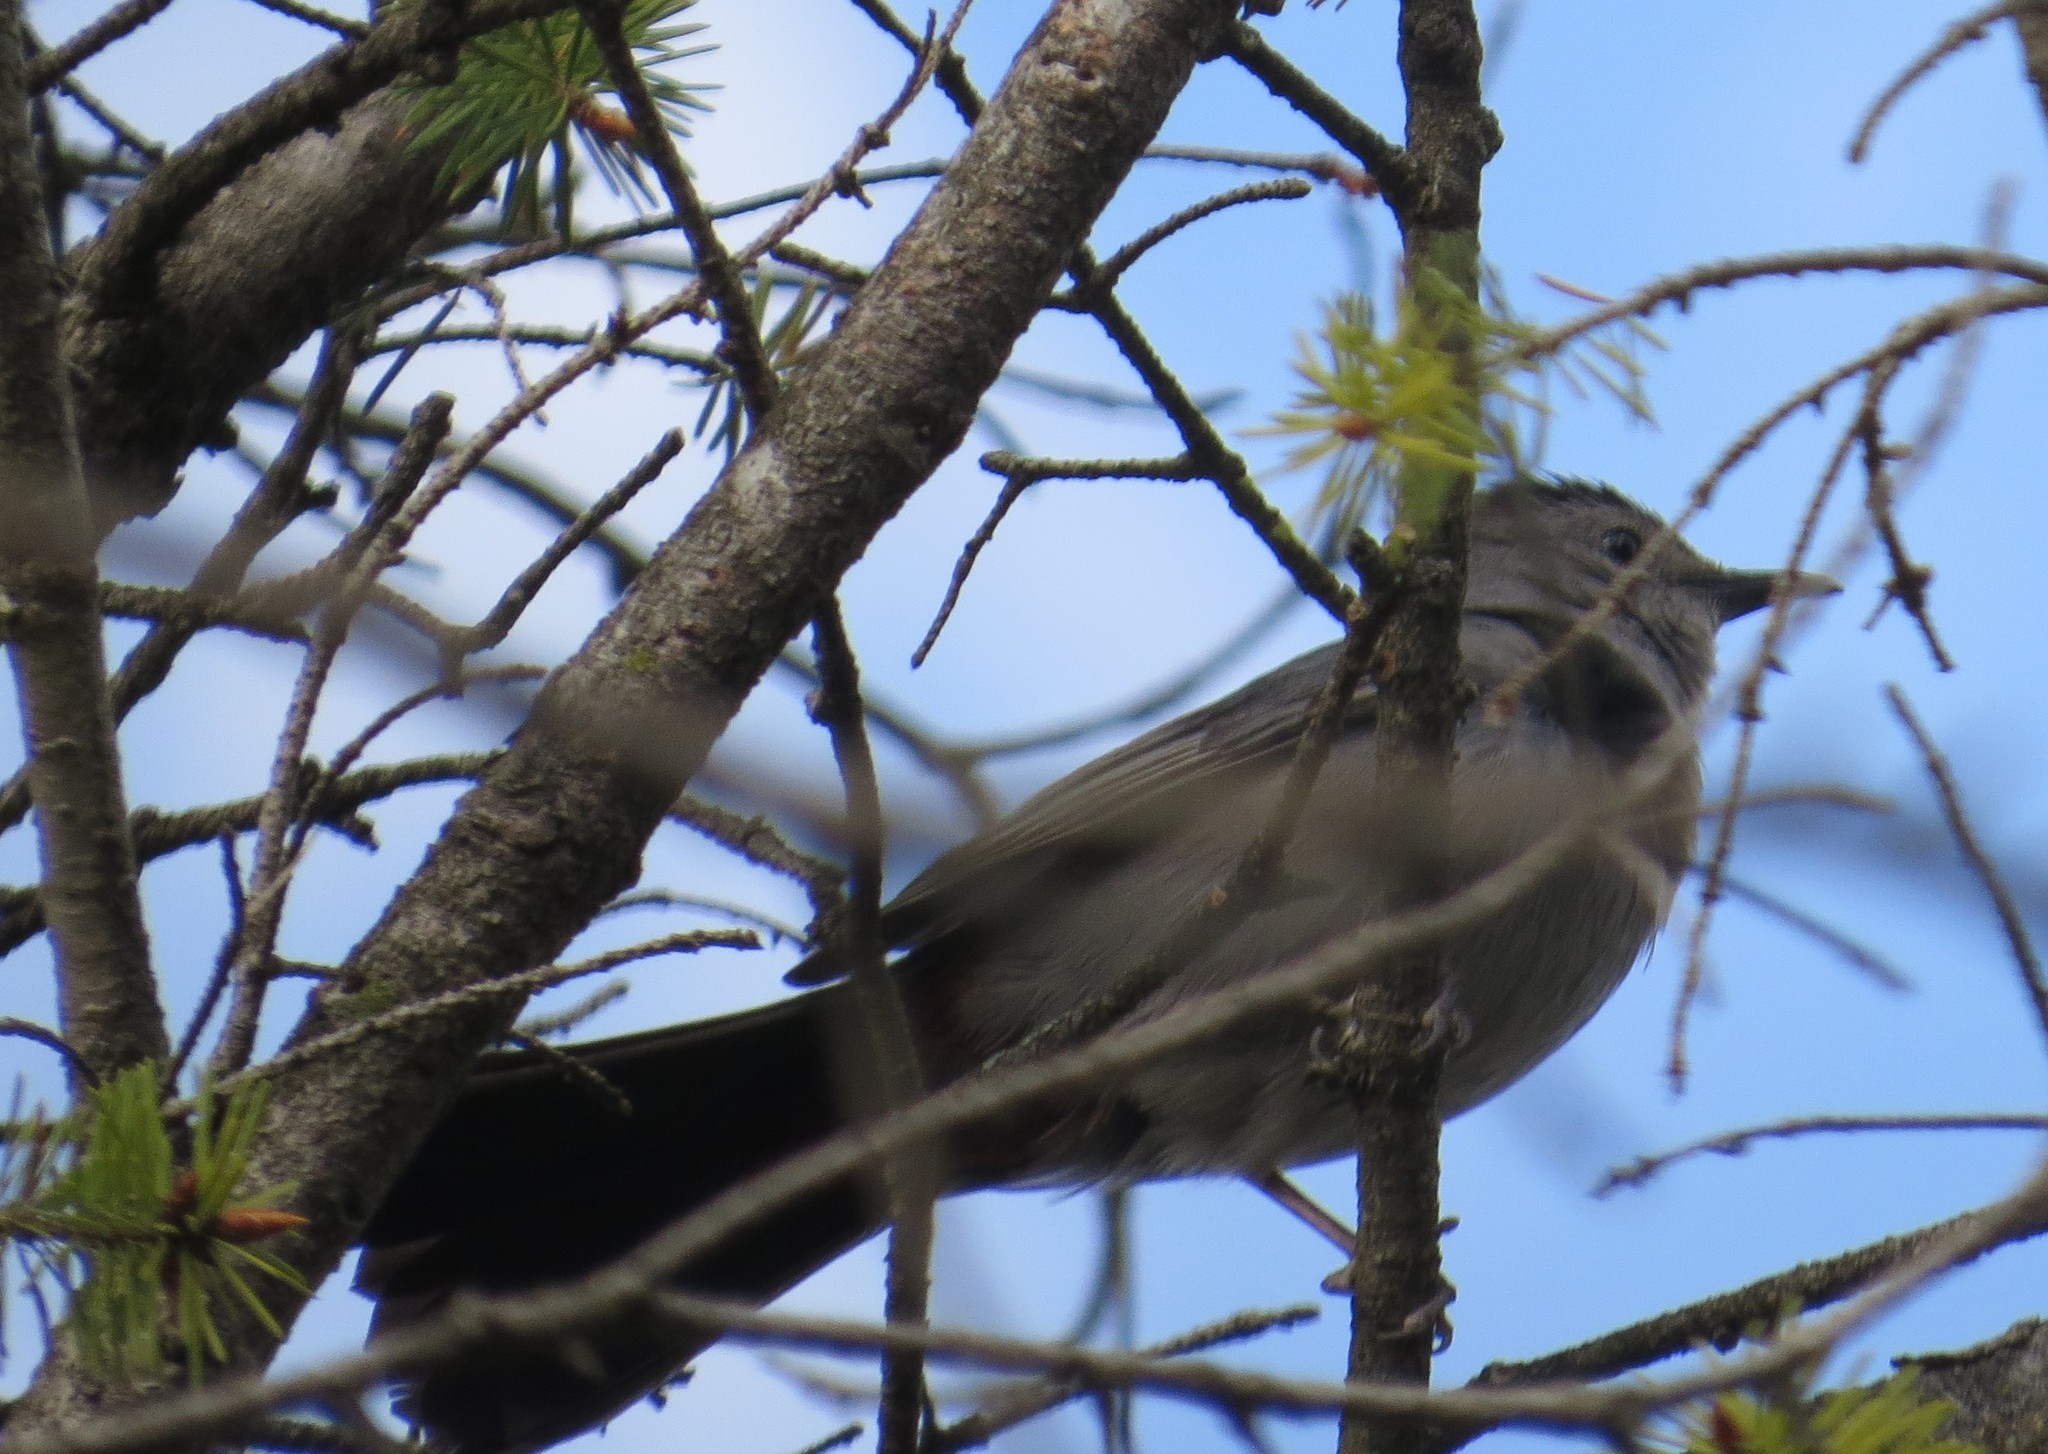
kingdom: Animalia
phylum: Chordata
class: Aves
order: Passeriformes
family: Mimidae
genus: Dumetella
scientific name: Dumetella carolinensis
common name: Gray catbird
